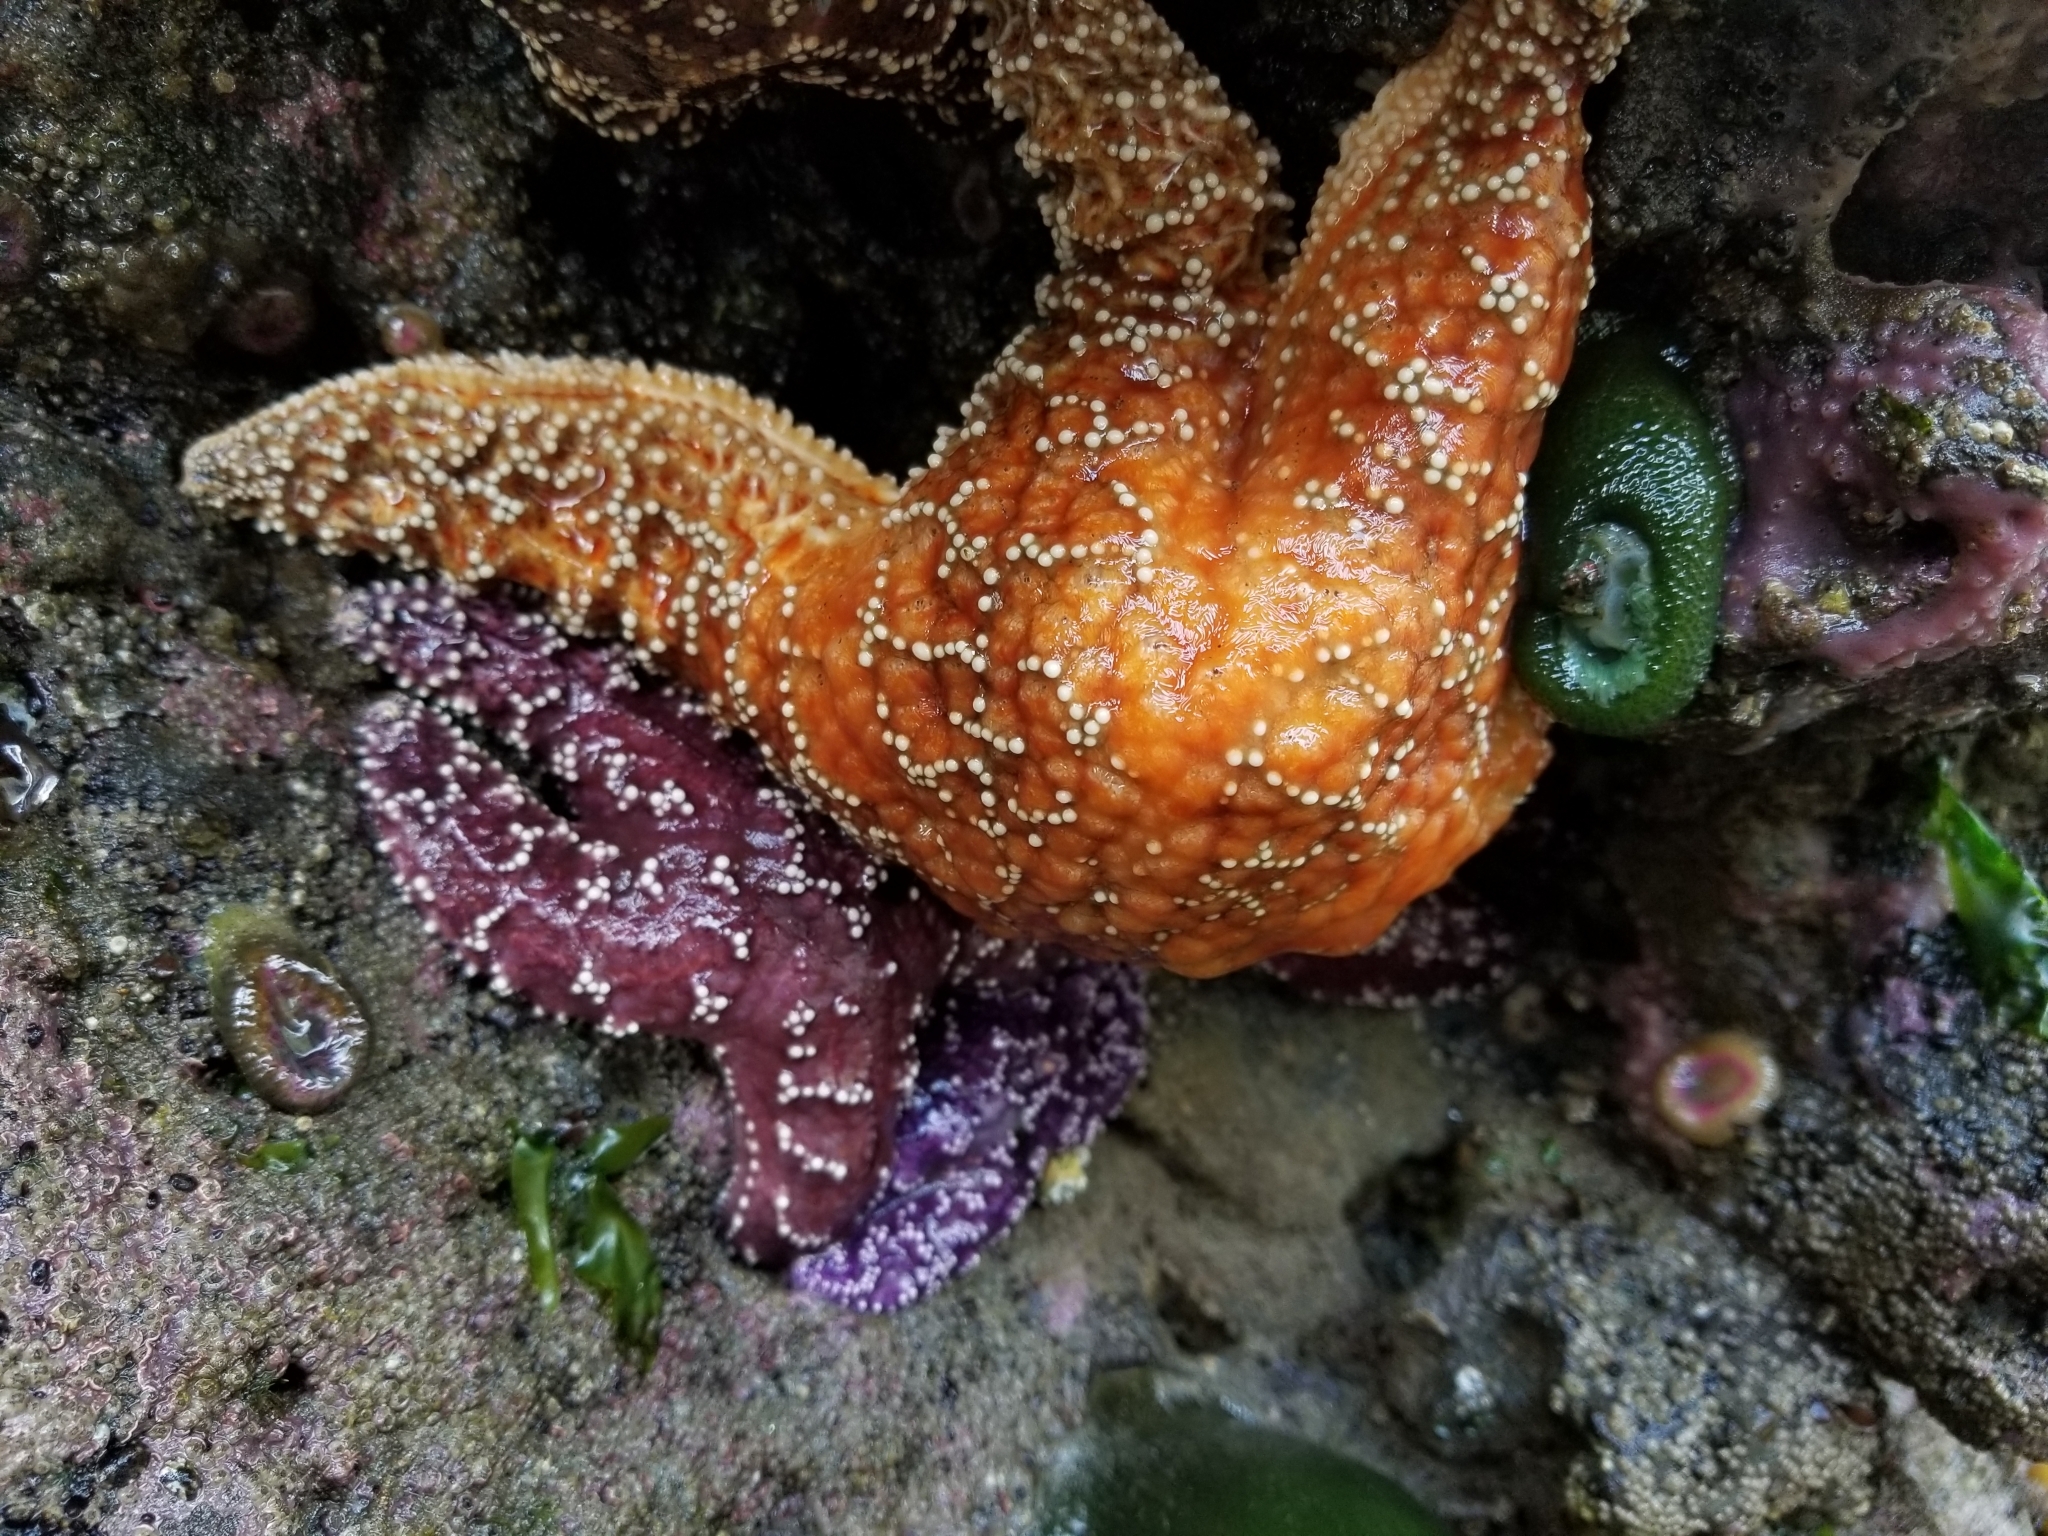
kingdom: Animalia
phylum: Echinodermata
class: Asteroidea
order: Forcipulatida
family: Asteriidae
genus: Pisaster
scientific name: Pisaster ochraceus
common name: Ochre stars
